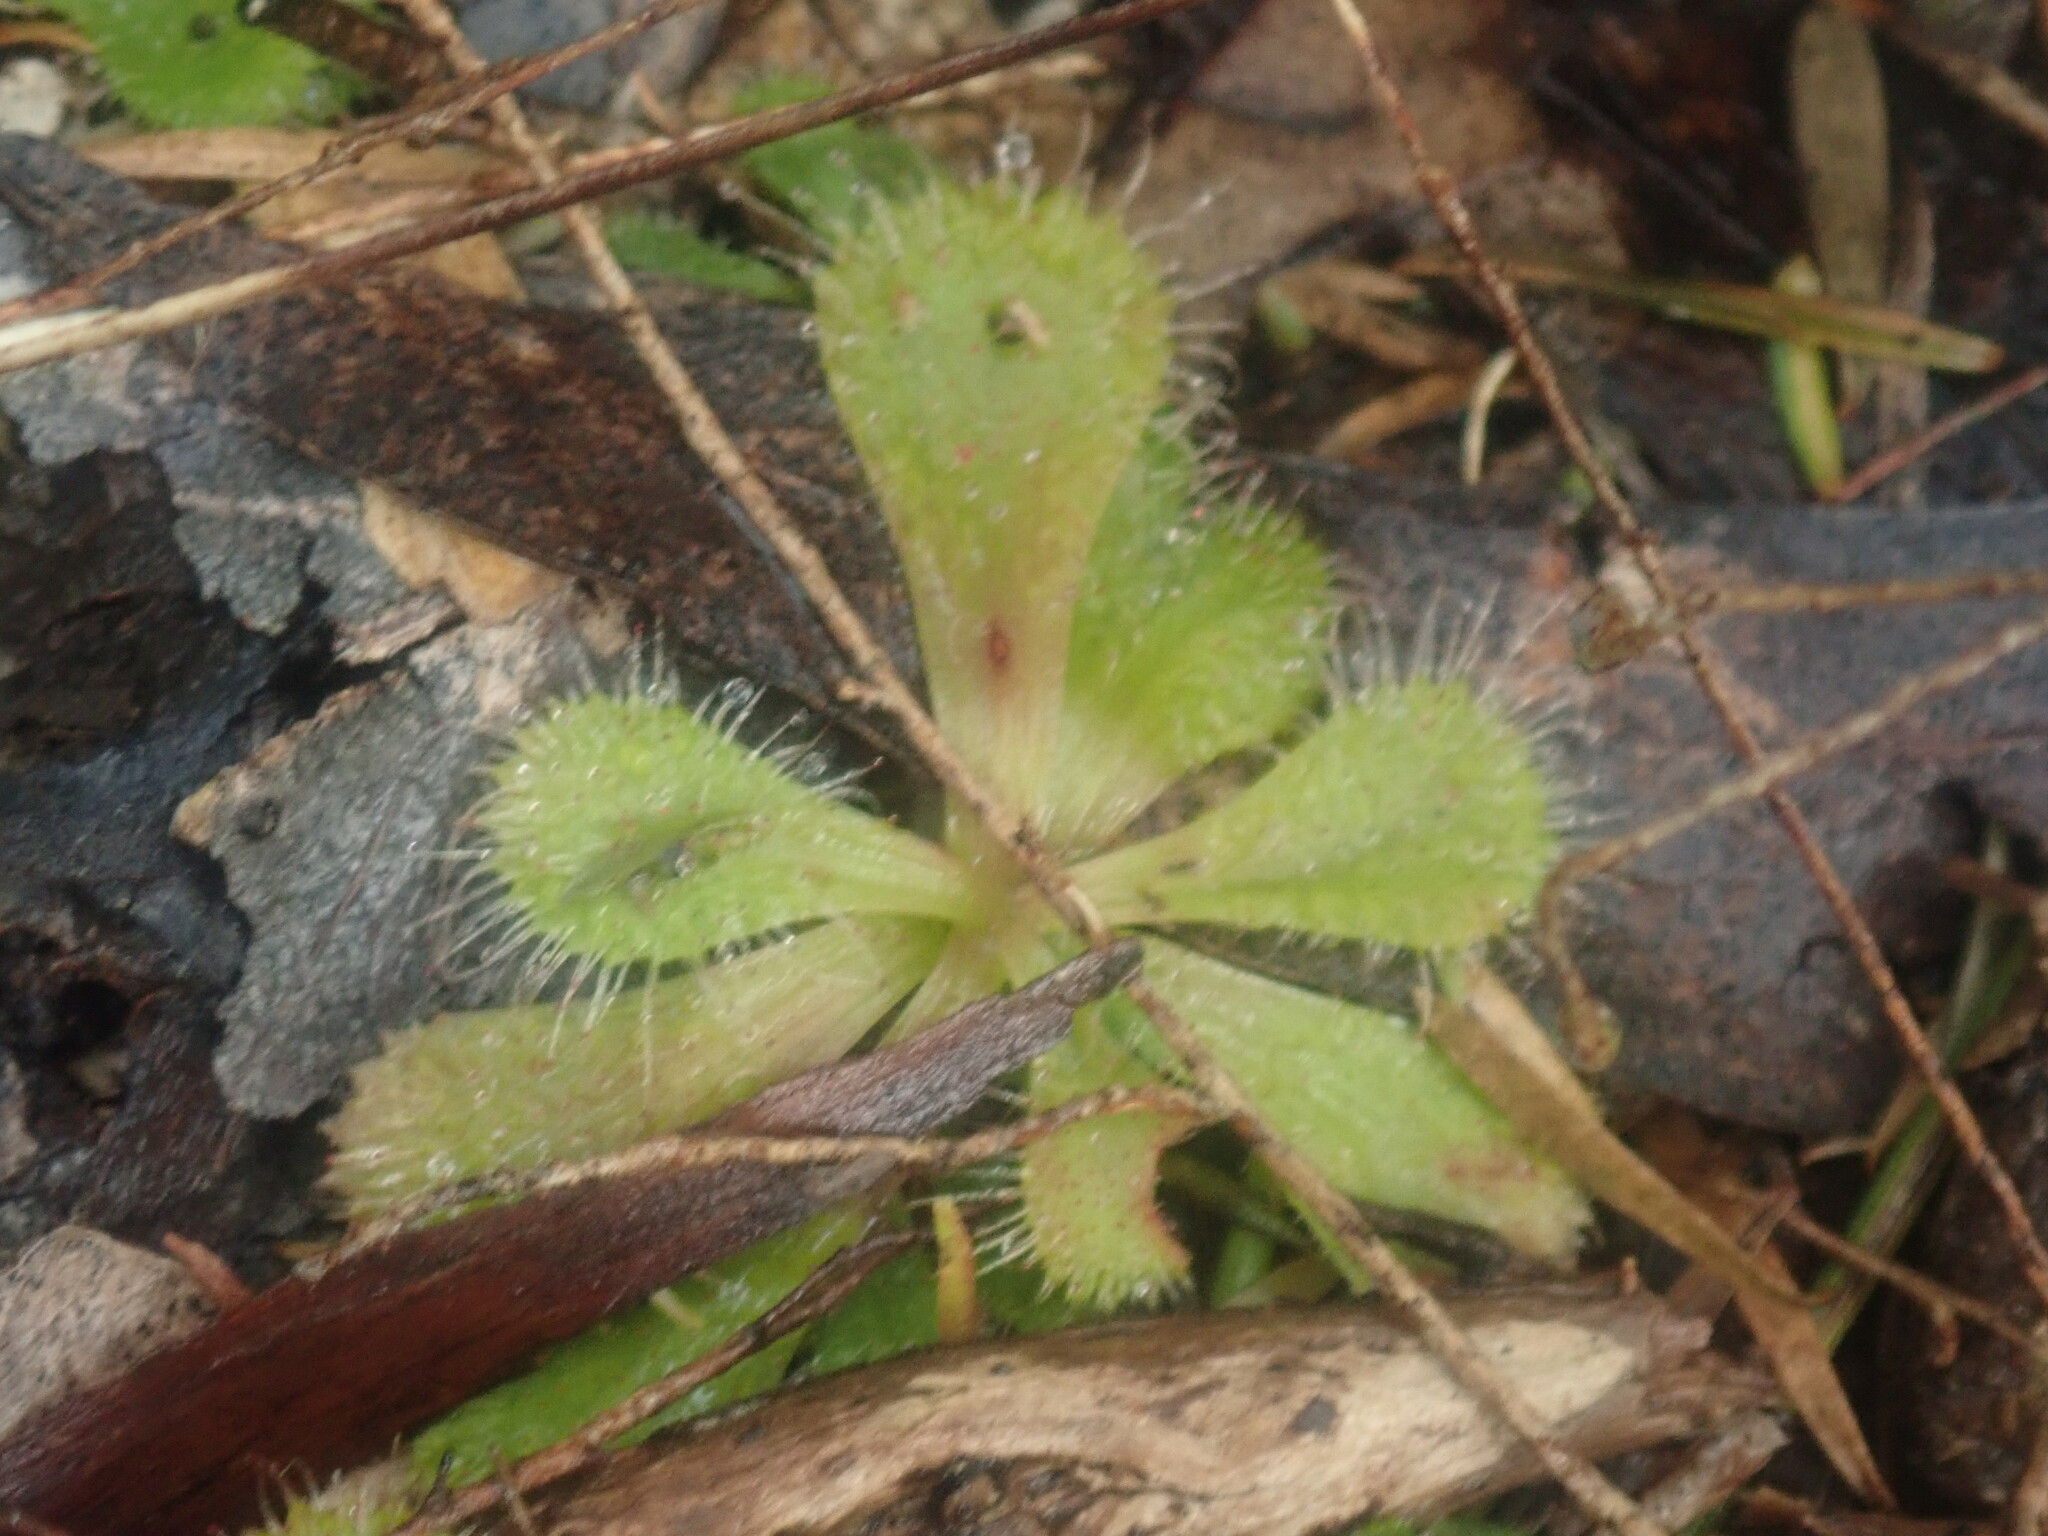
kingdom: Plantae
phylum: Tracheophyta
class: Magnoliopsida
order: Caryophyllales
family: Droseraceae
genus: Drosera
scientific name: Drosera aberrans
